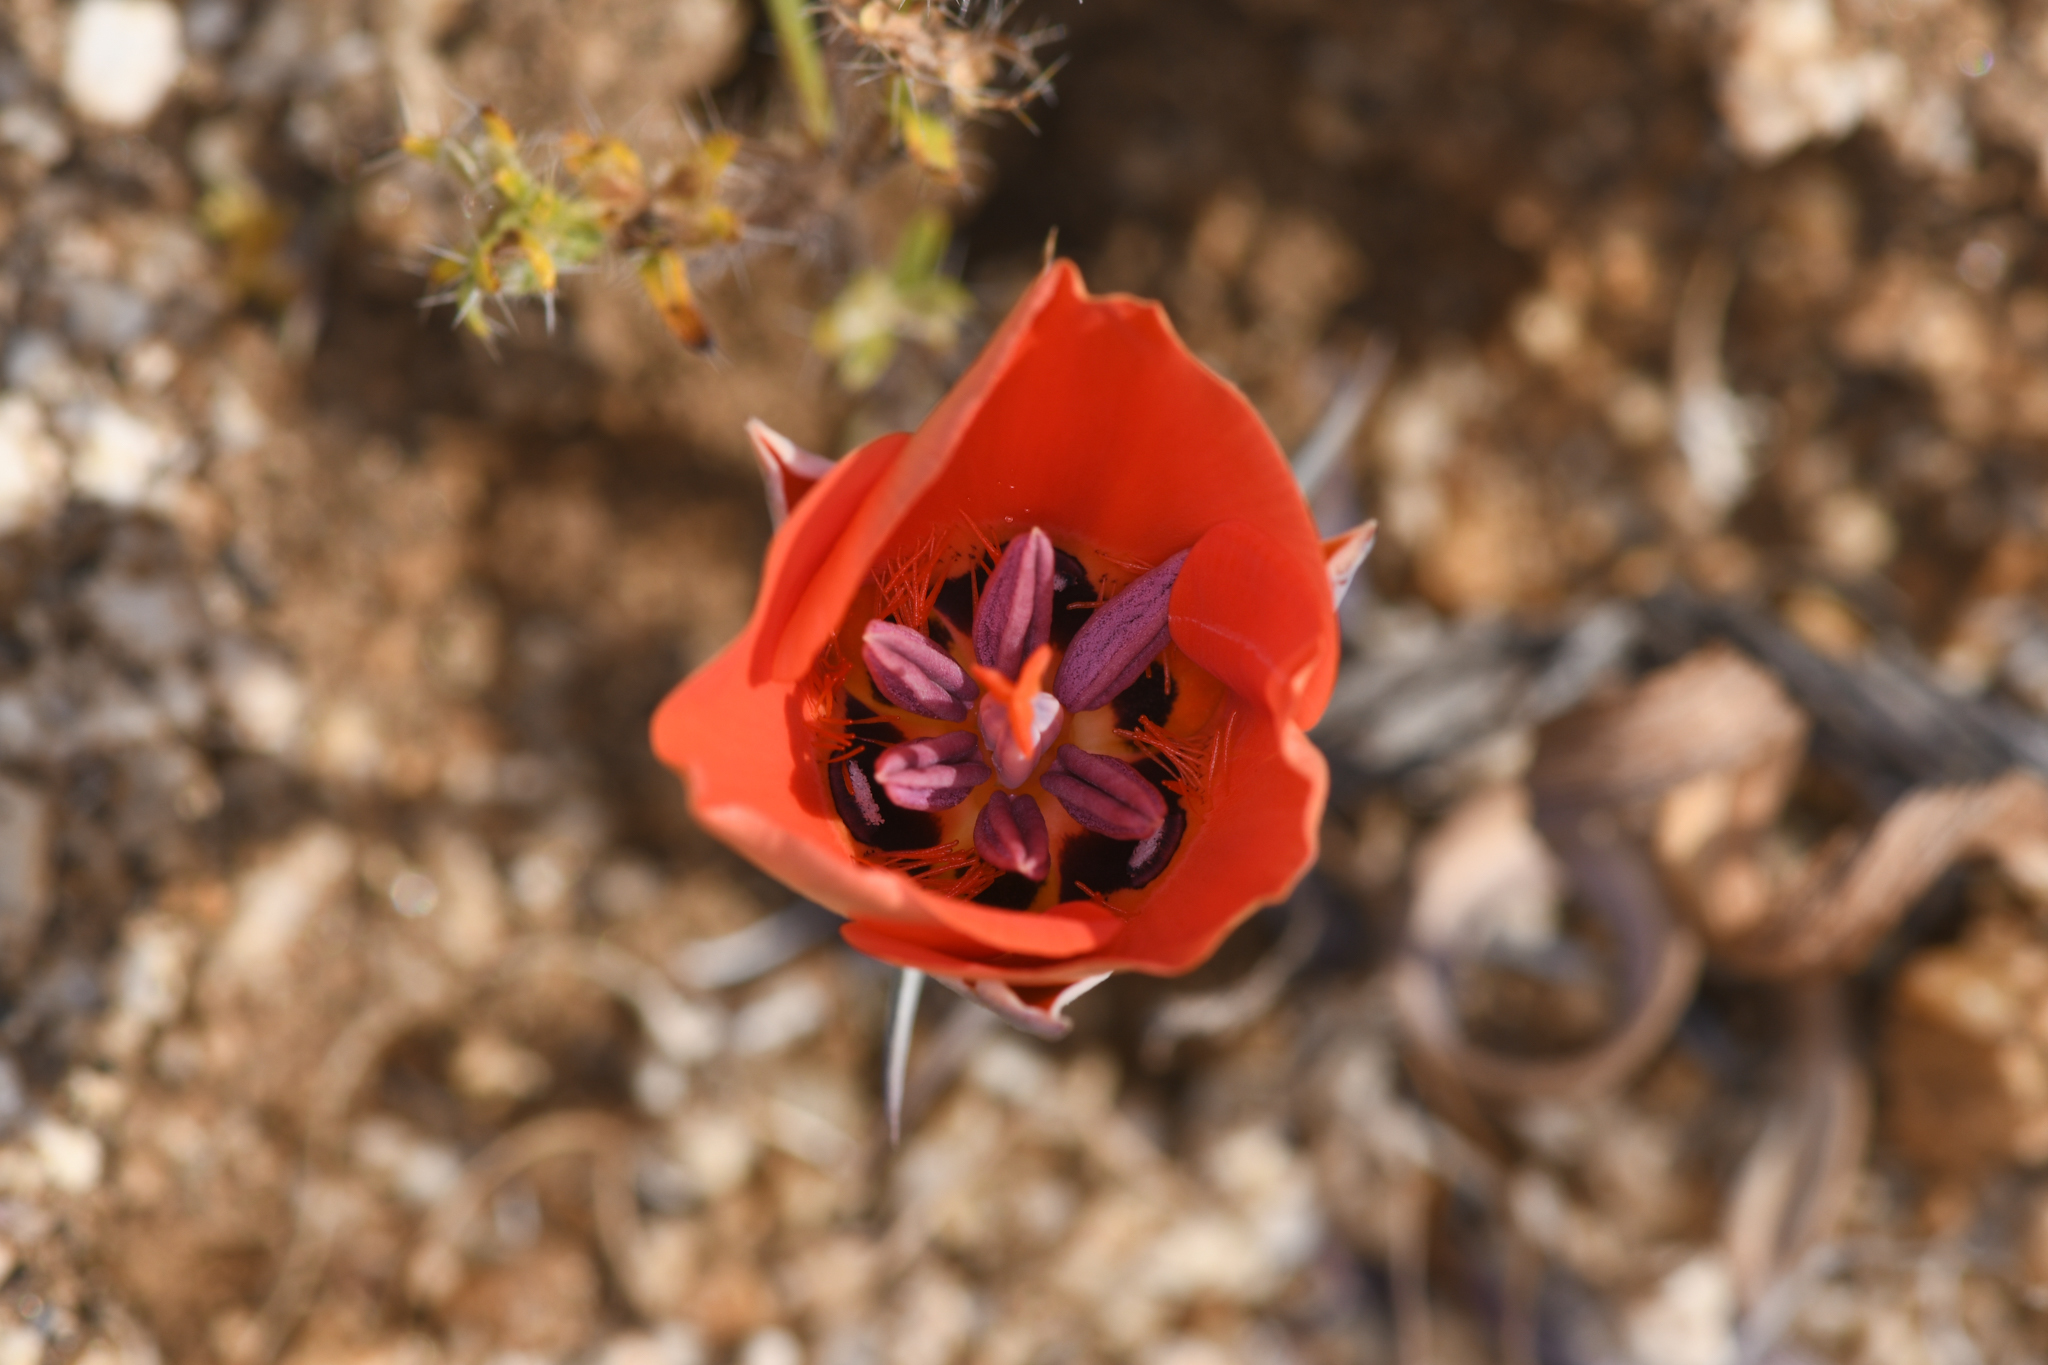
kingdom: Plantae
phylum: Tracheophyta
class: Liliopsida
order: Liliales
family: Liliaceae
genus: Calochortus
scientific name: Calochortus kennedyi
